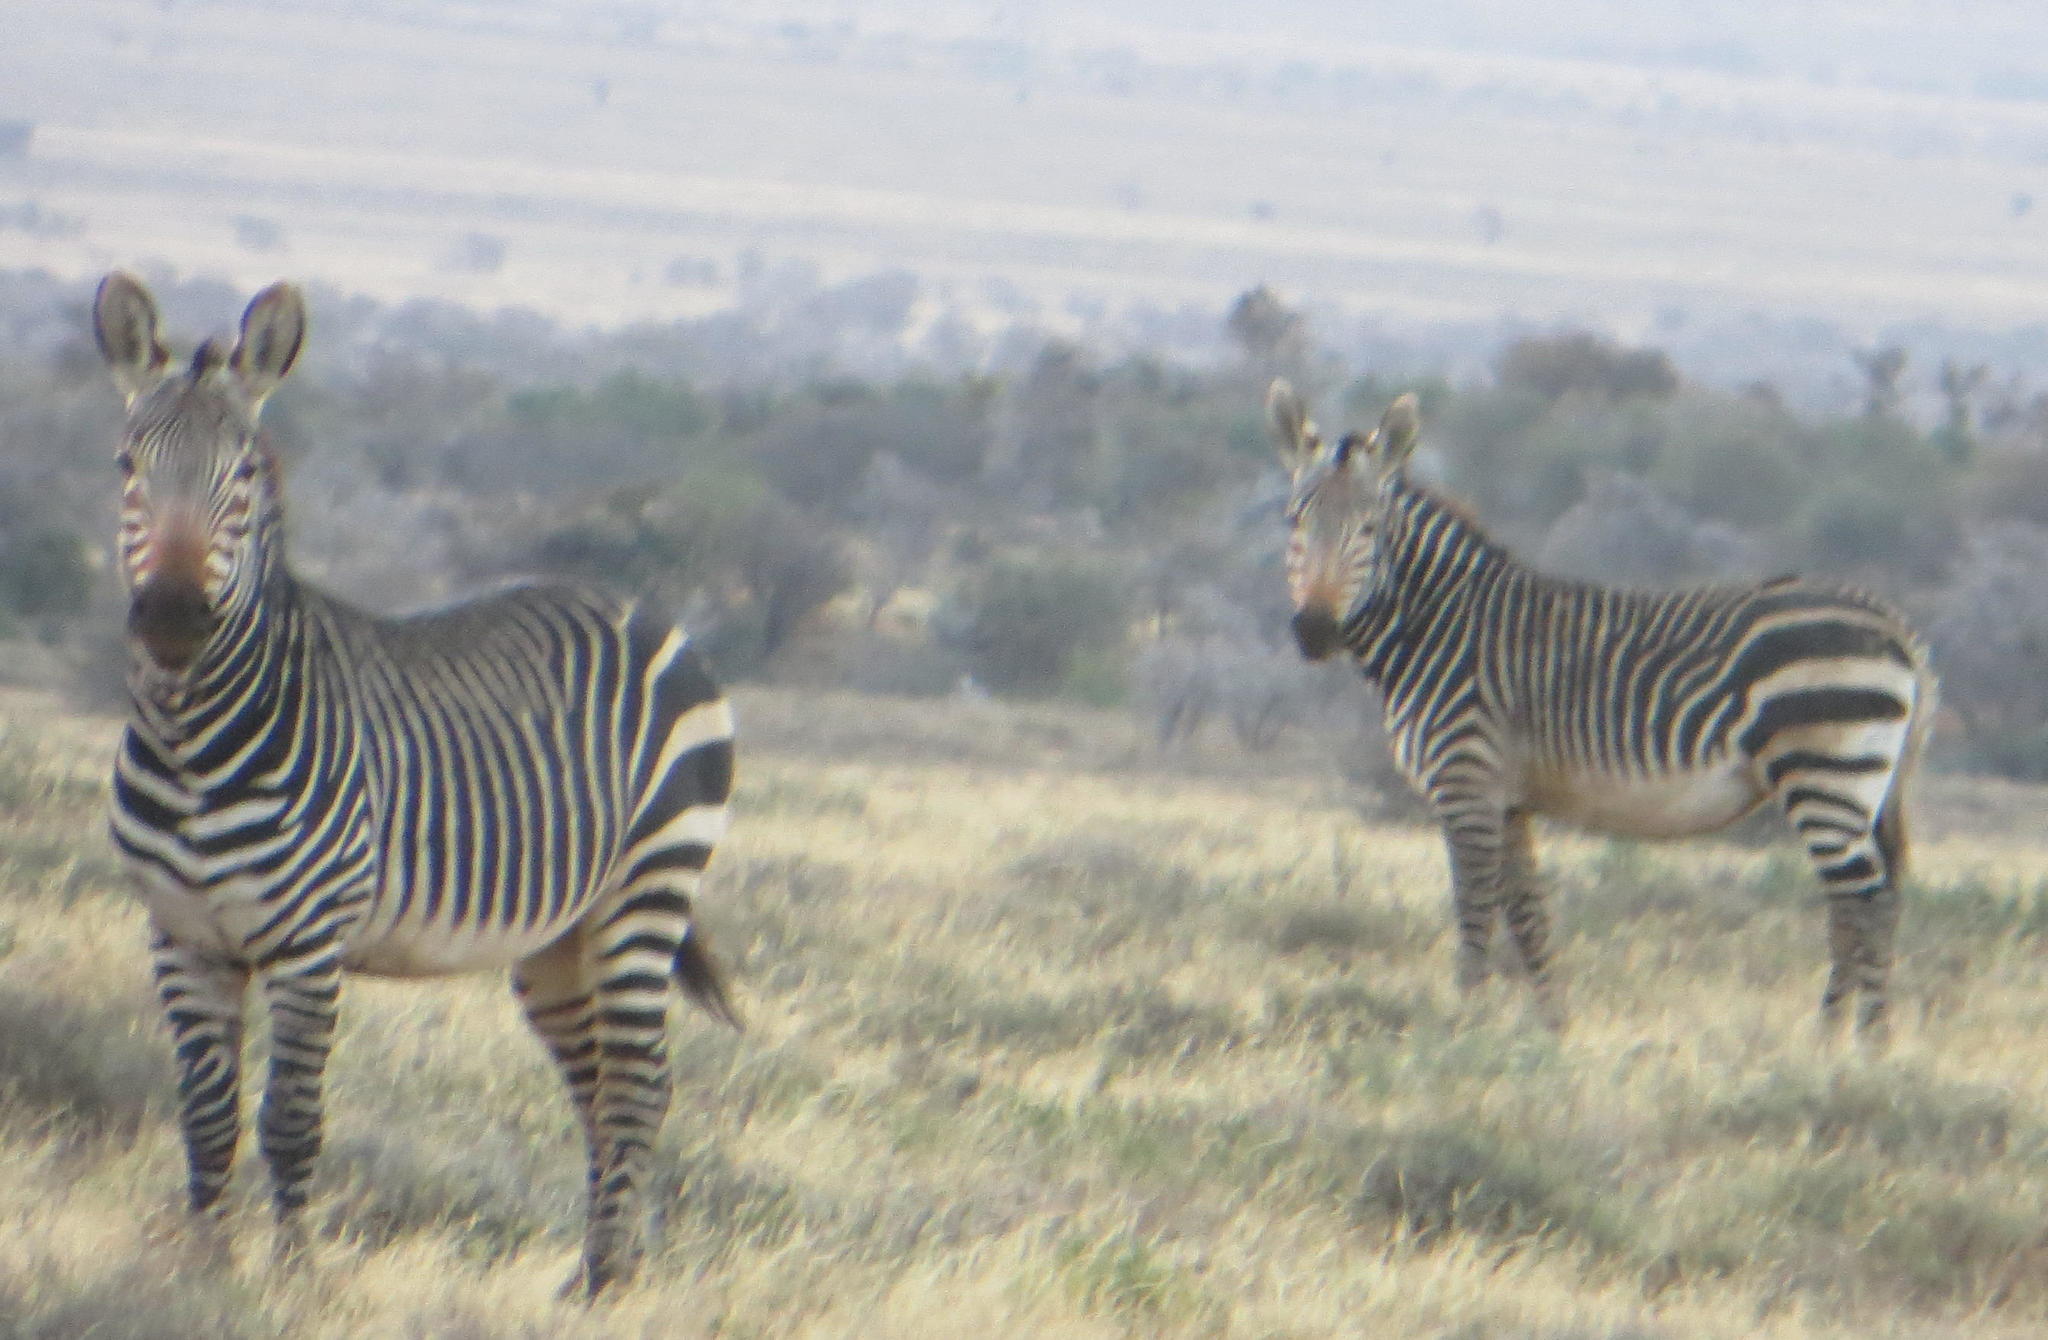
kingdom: Animalia
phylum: Chordata
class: Mammalia
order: Perissodactyla
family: Equidae
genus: Equus
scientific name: Equus zebra
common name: Mountain zebra
